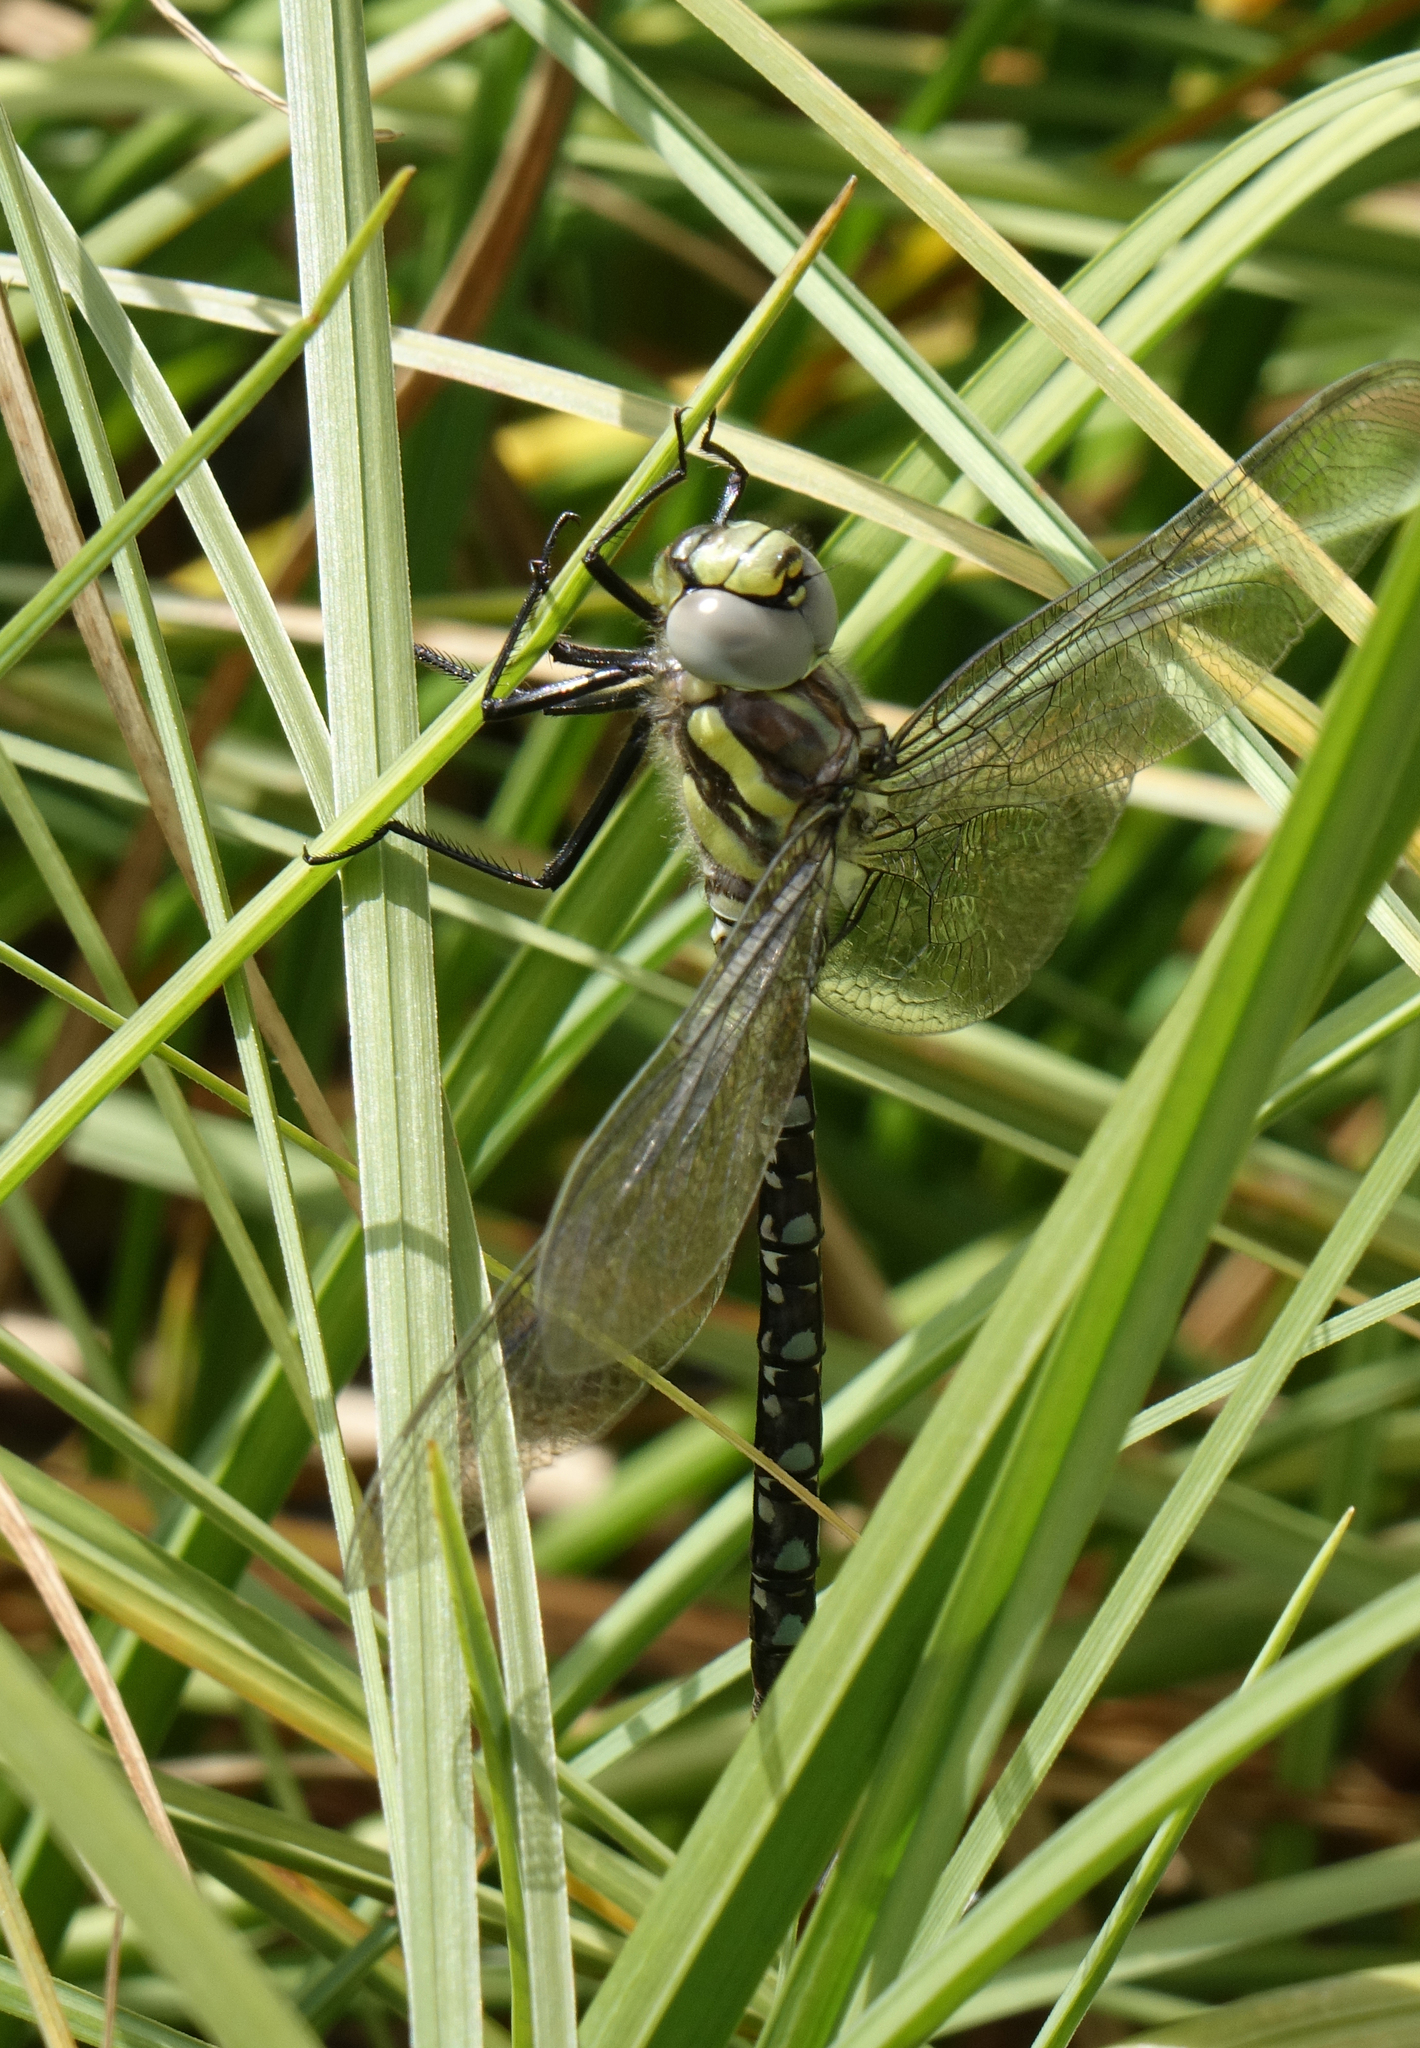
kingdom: Animalia
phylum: Arthropoda
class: Insecta
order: Odonata
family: Aeshnidae
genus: Aeshna
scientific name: Aeshna juncea
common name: Moorland hawker
